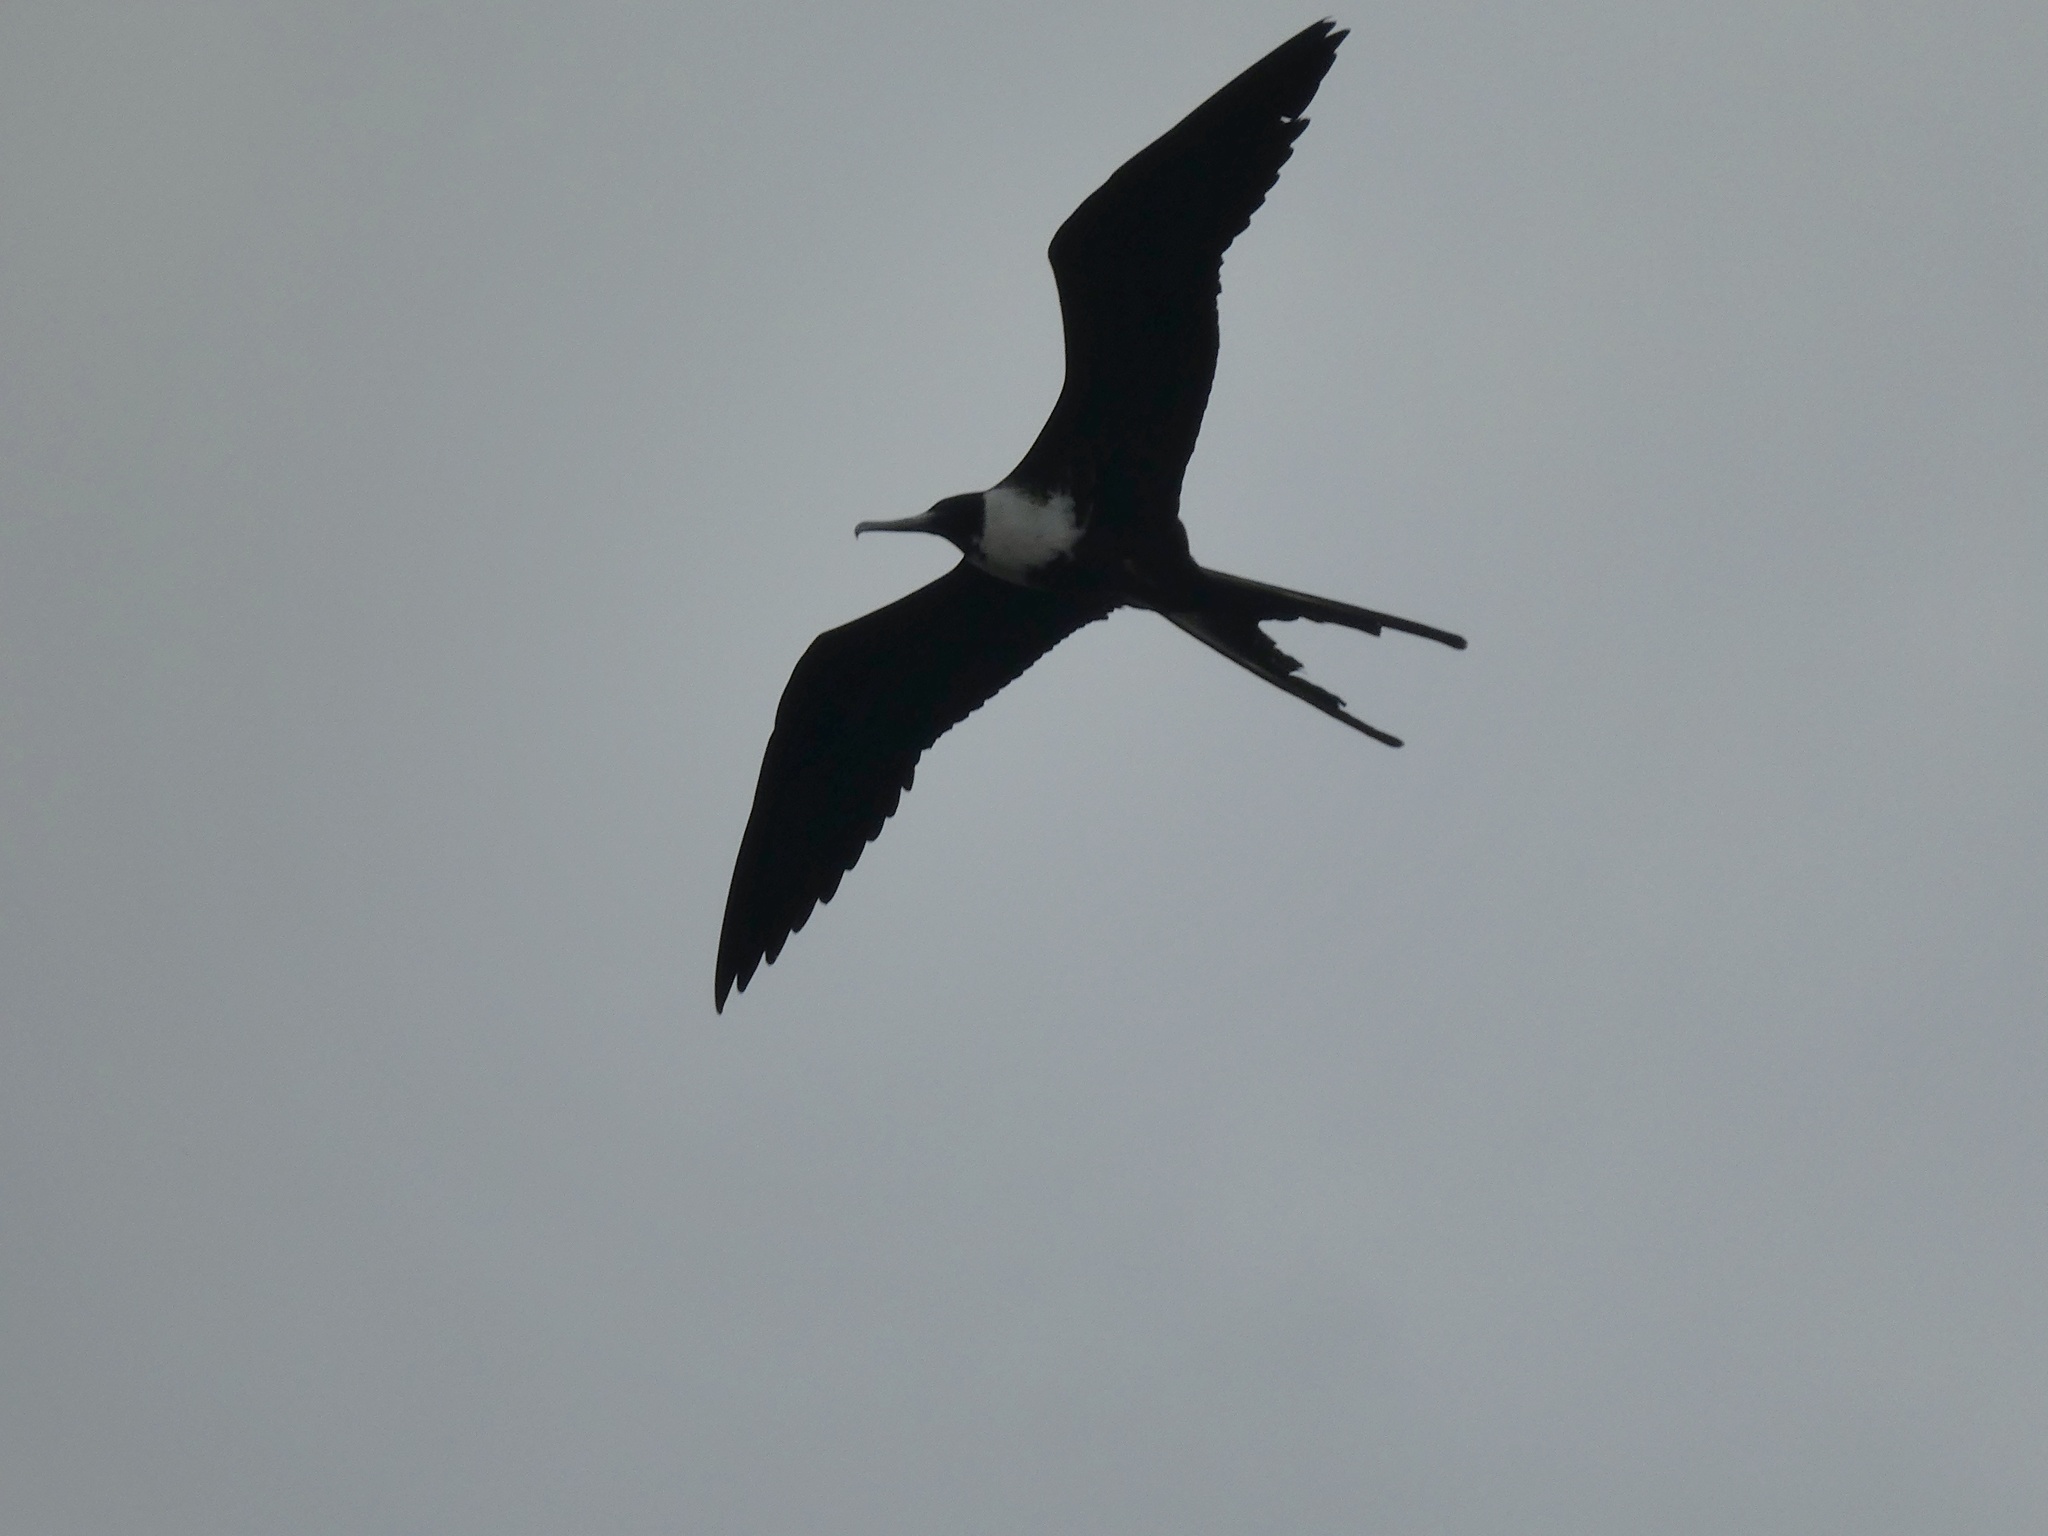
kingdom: Animalia
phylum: Chordata
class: Aves
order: Suliformes
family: Fregatidae
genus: Fregata
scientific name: Fregata magnificens
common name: Magnificent frigatebird
